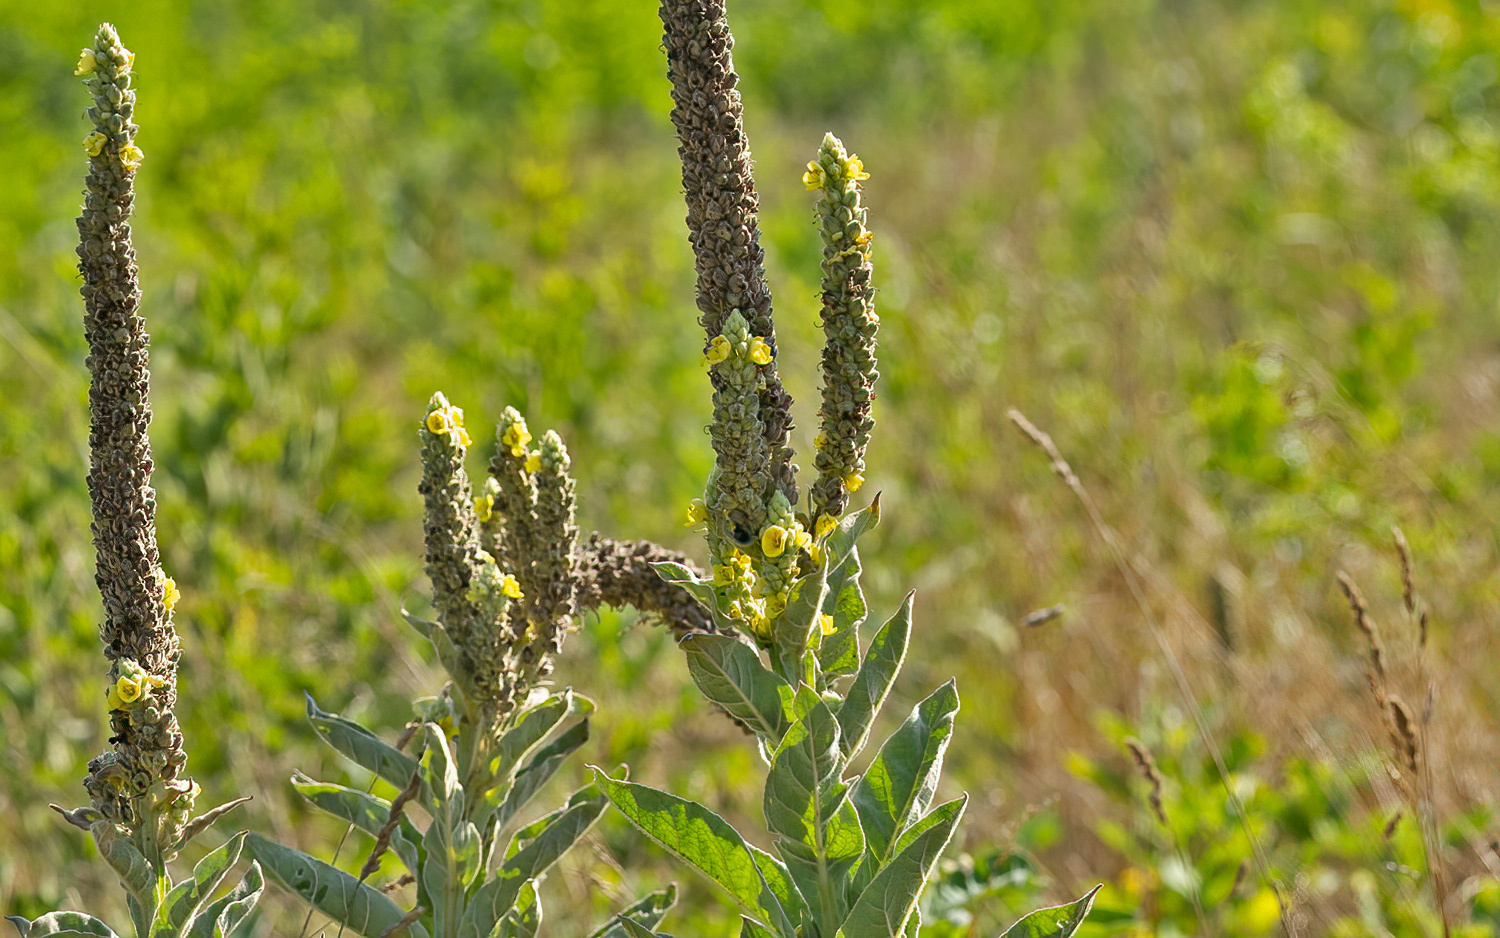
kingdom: Plantae
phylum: Tracheophyta
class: Magnoliopsida
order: Lamiales
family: Scrophulariaceae
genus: Verbascum
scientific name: Verbascum thapsus
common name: Common mullein
